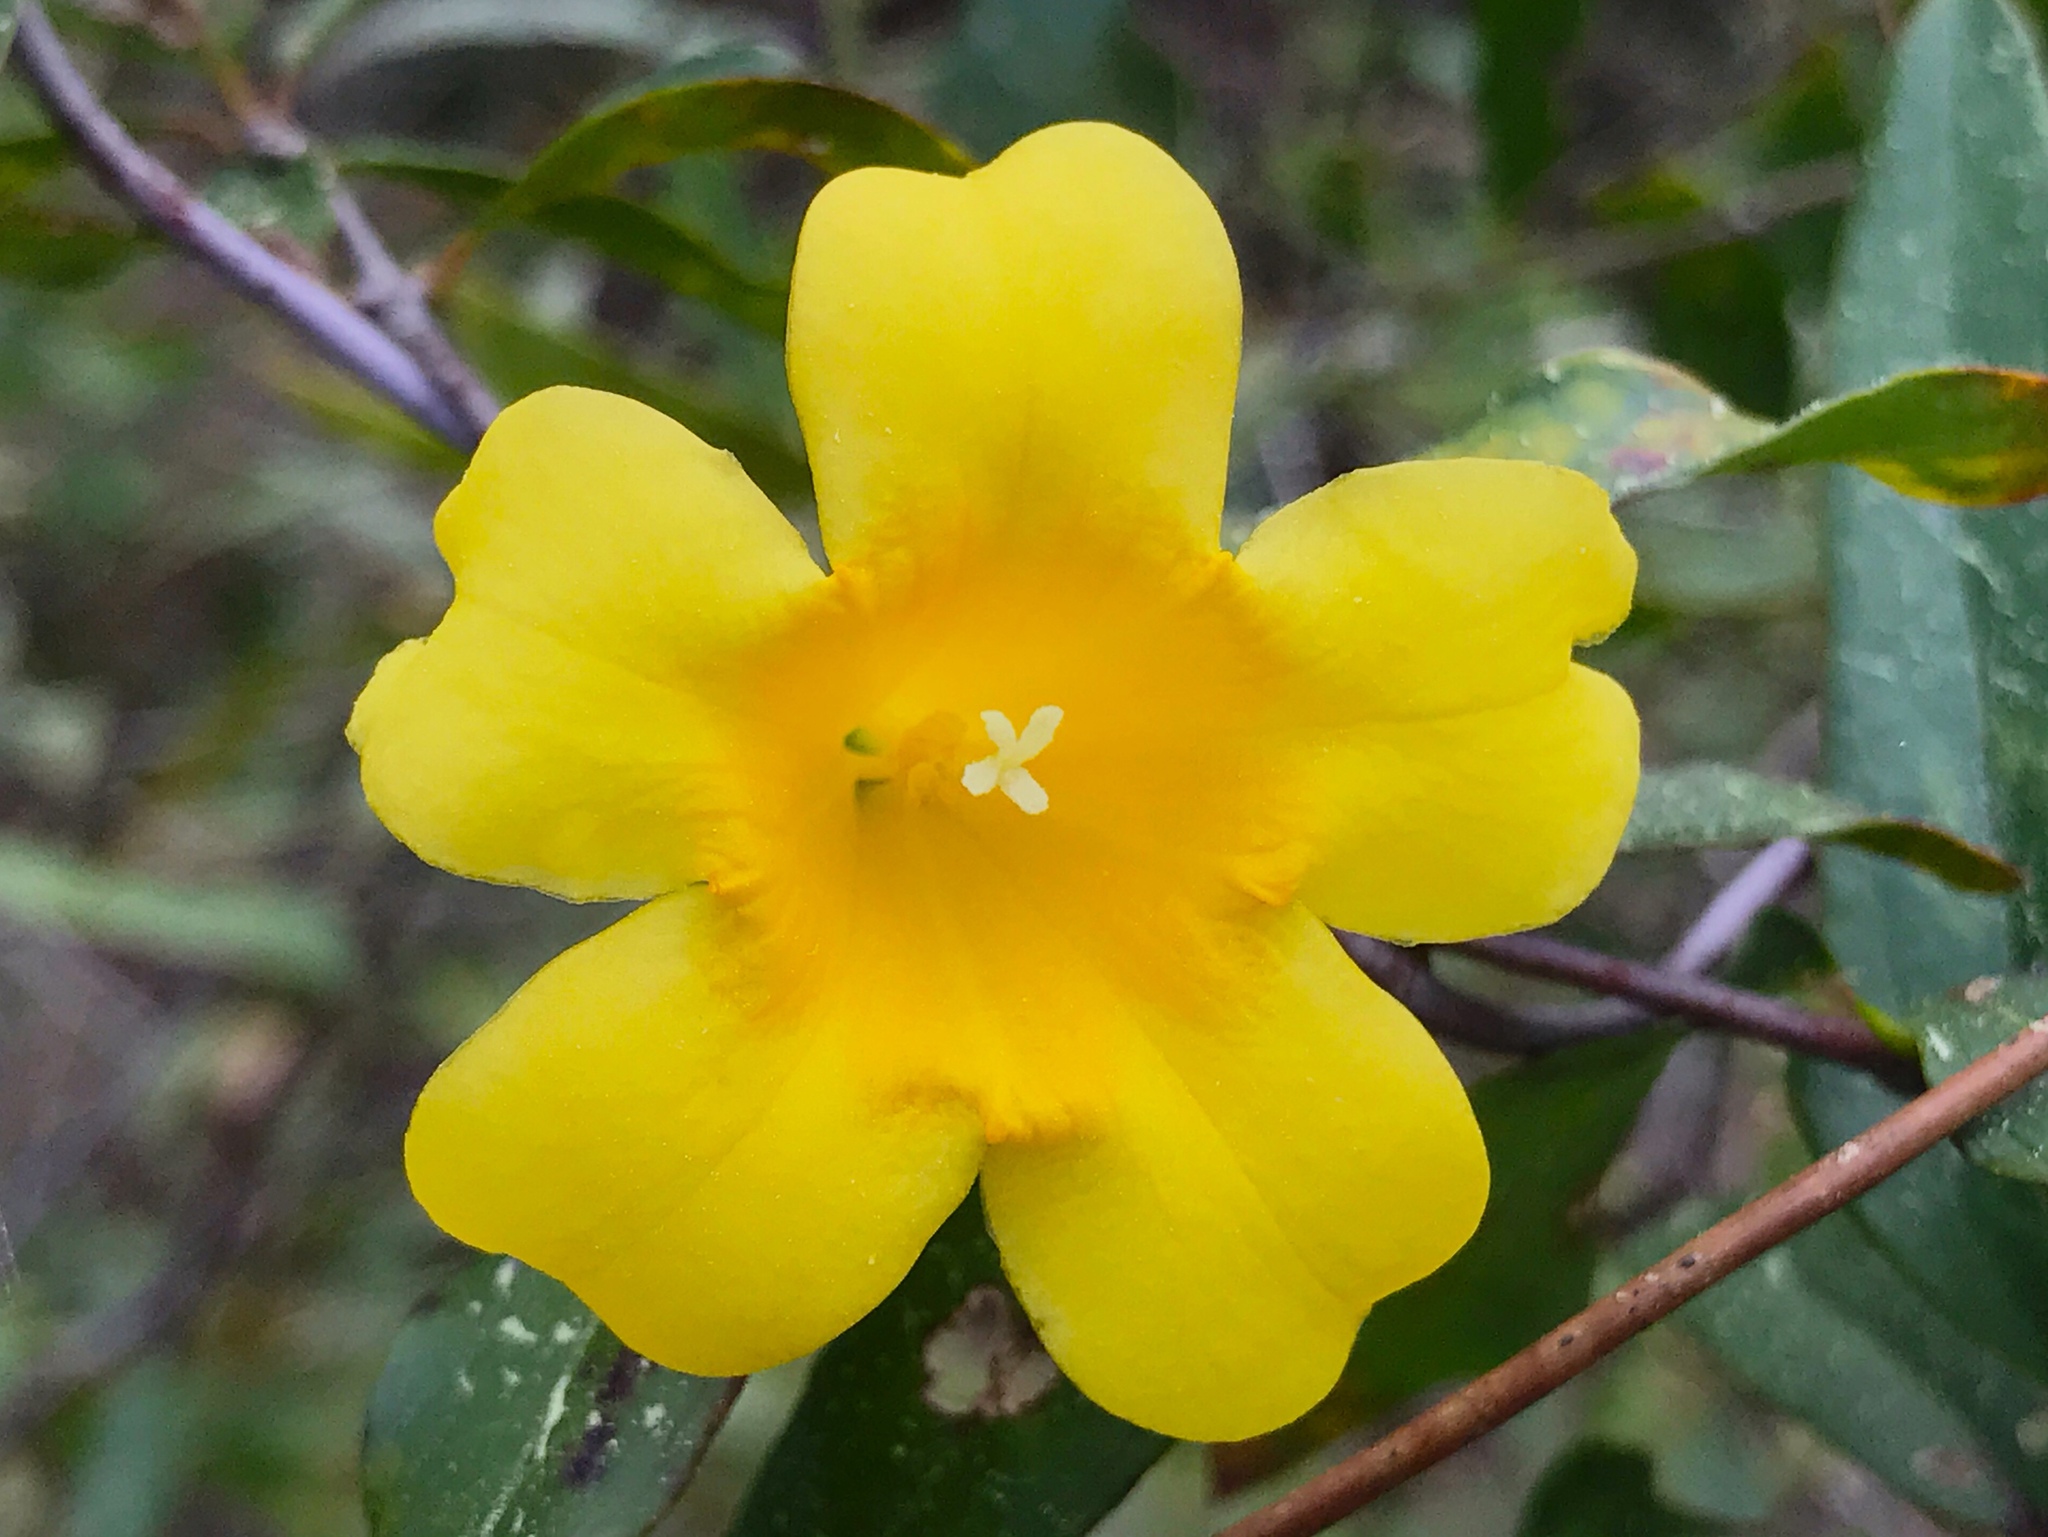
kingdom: Plantae
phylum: Tracheophyta
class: Magnoliopsida
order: Gentianales
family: Gelsemiaceae
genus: Gelsemium
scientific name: Gelsemium sempervirens
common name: Carolina-jasmine
